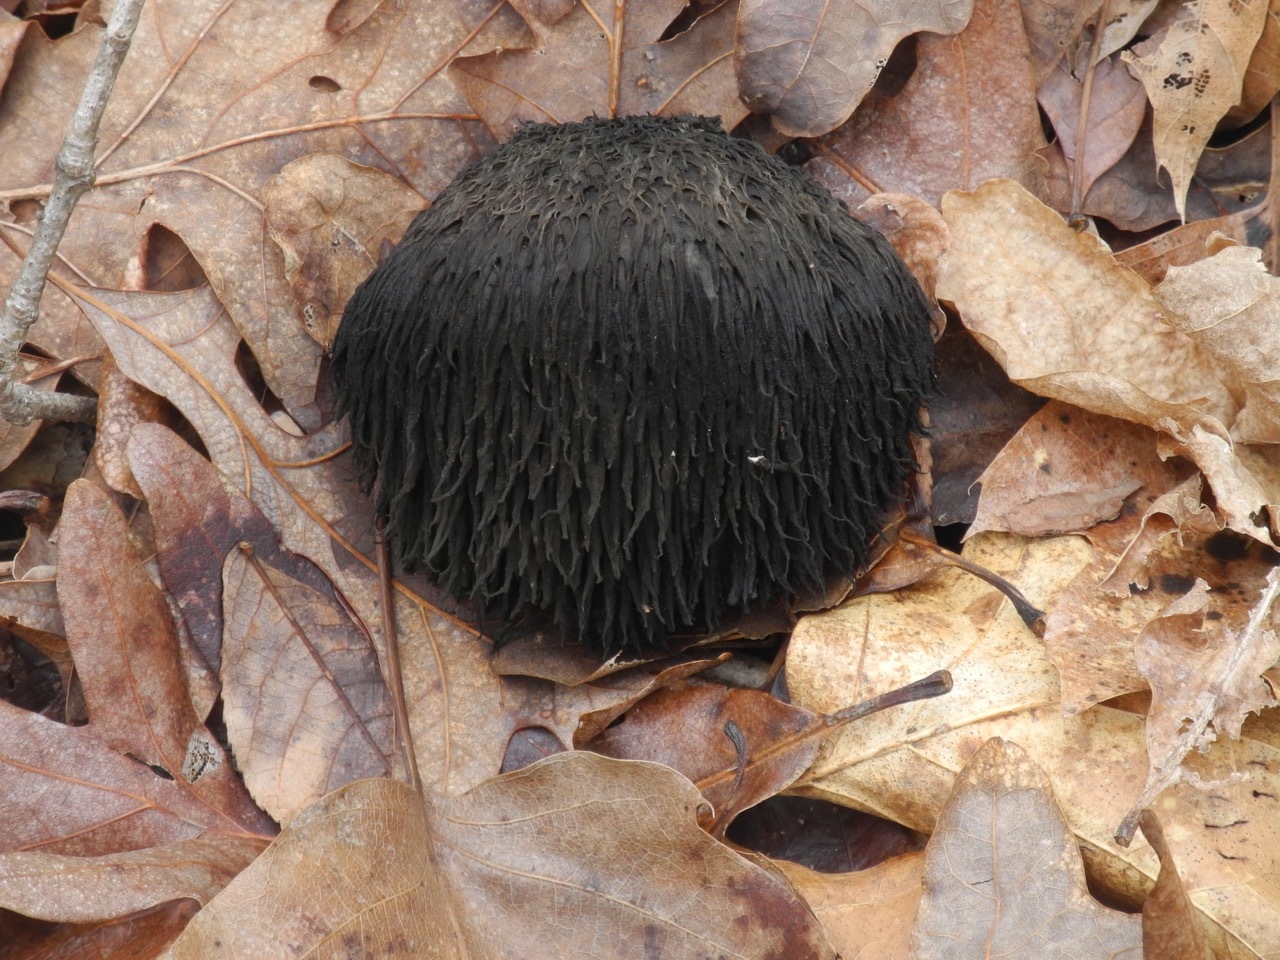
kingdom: Fungi
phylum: Basidiomycota
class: Agaricomycetes
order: Russulales
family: Hericiaceae
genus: Hericium
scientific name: Hericium erinaceus
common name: Bearded tooth
